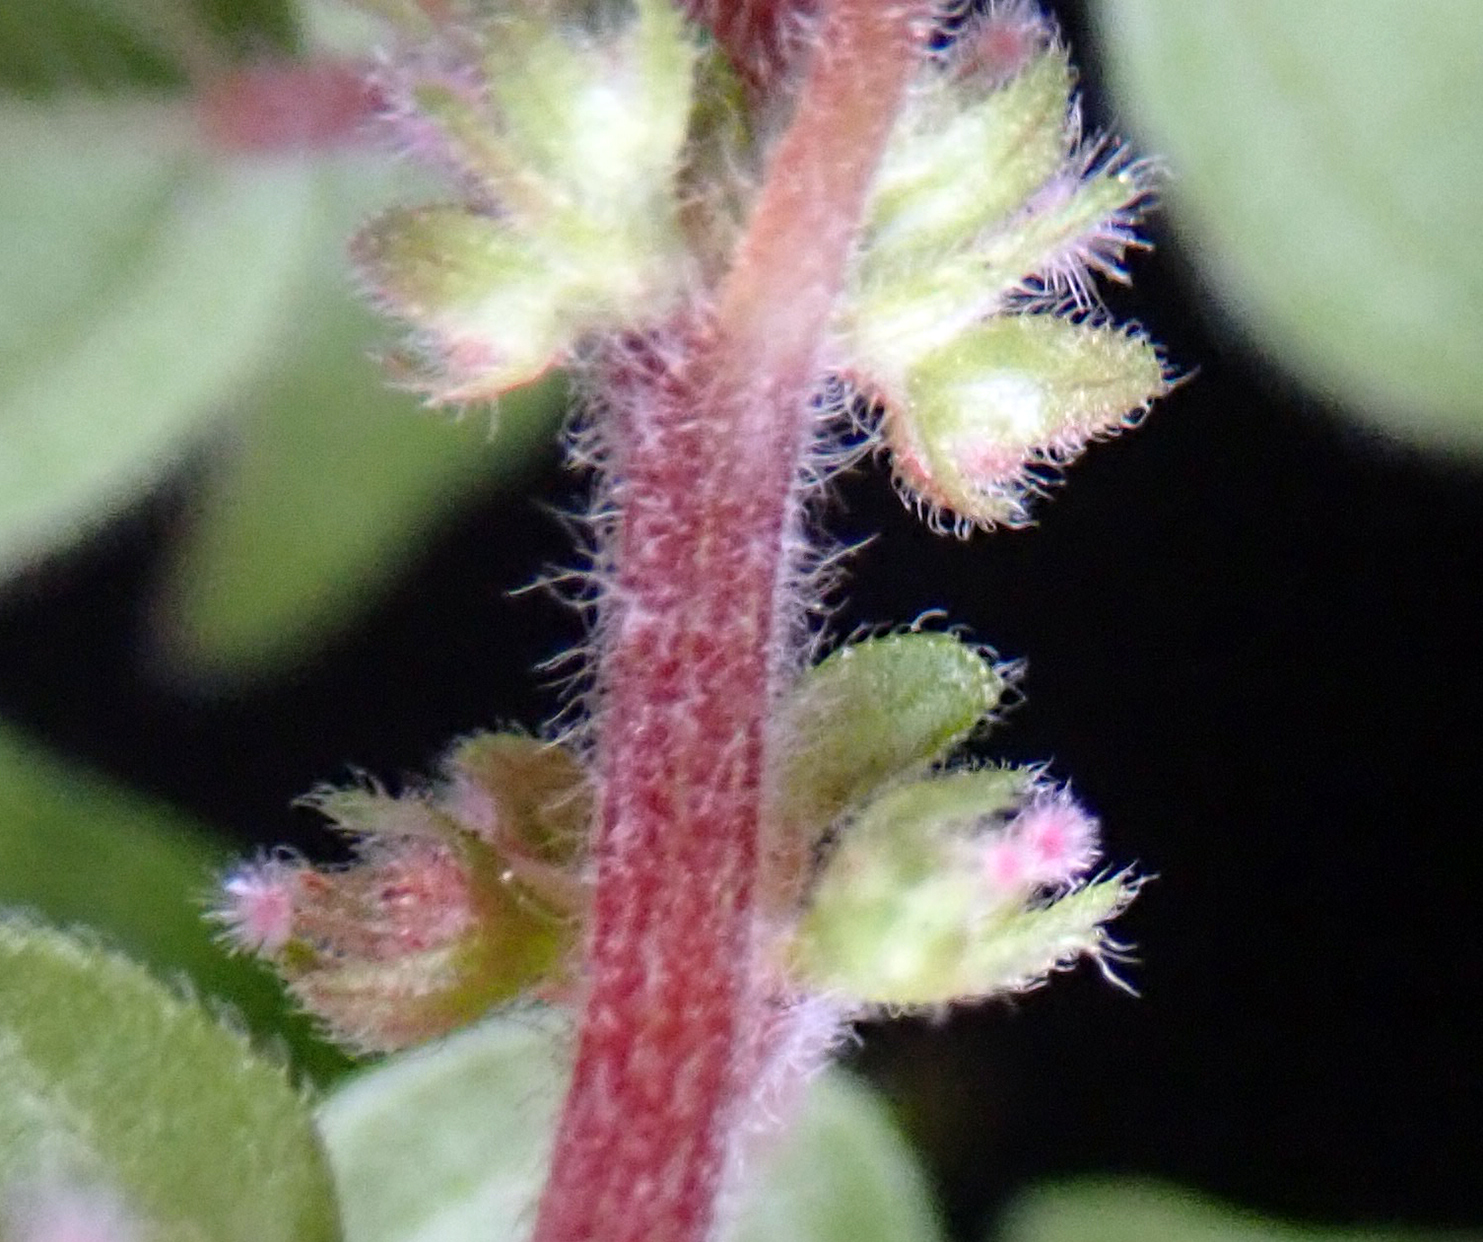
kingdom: Plantae
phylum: Tracheophyta
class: Magnoliopsida
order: Rosales
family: Urticaceae
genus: Parietaria
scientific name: Parietaria judaica
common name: Pellitory-of-the-wall
